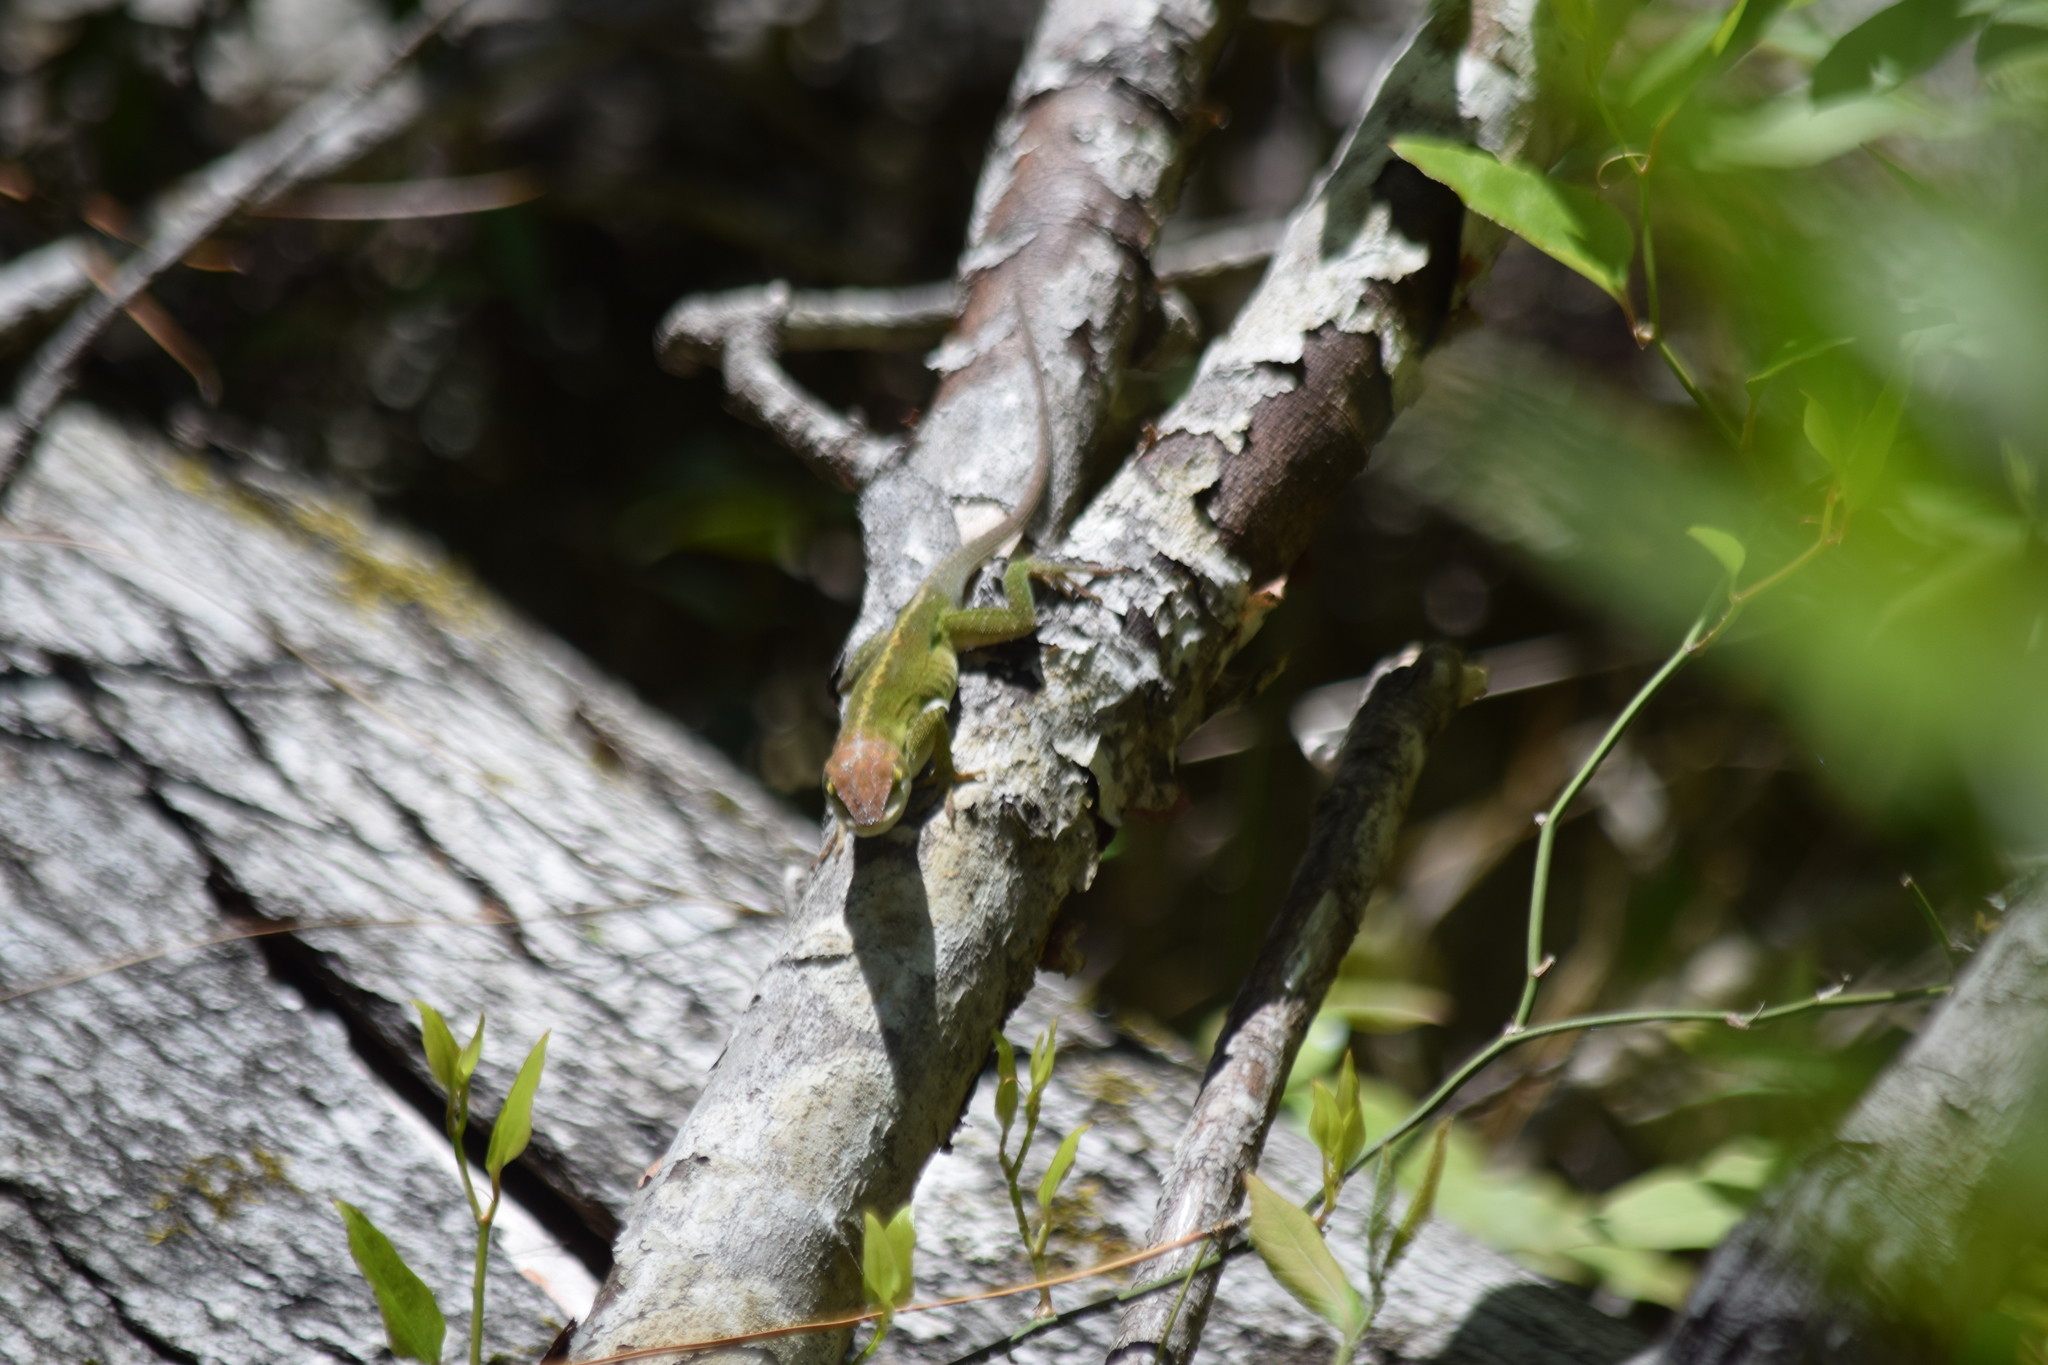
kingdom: Animalia
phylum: Chordata
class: Squamata
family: Dactyloidae
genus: Anolis
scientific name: Anolis carolinensis
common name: Green anole
